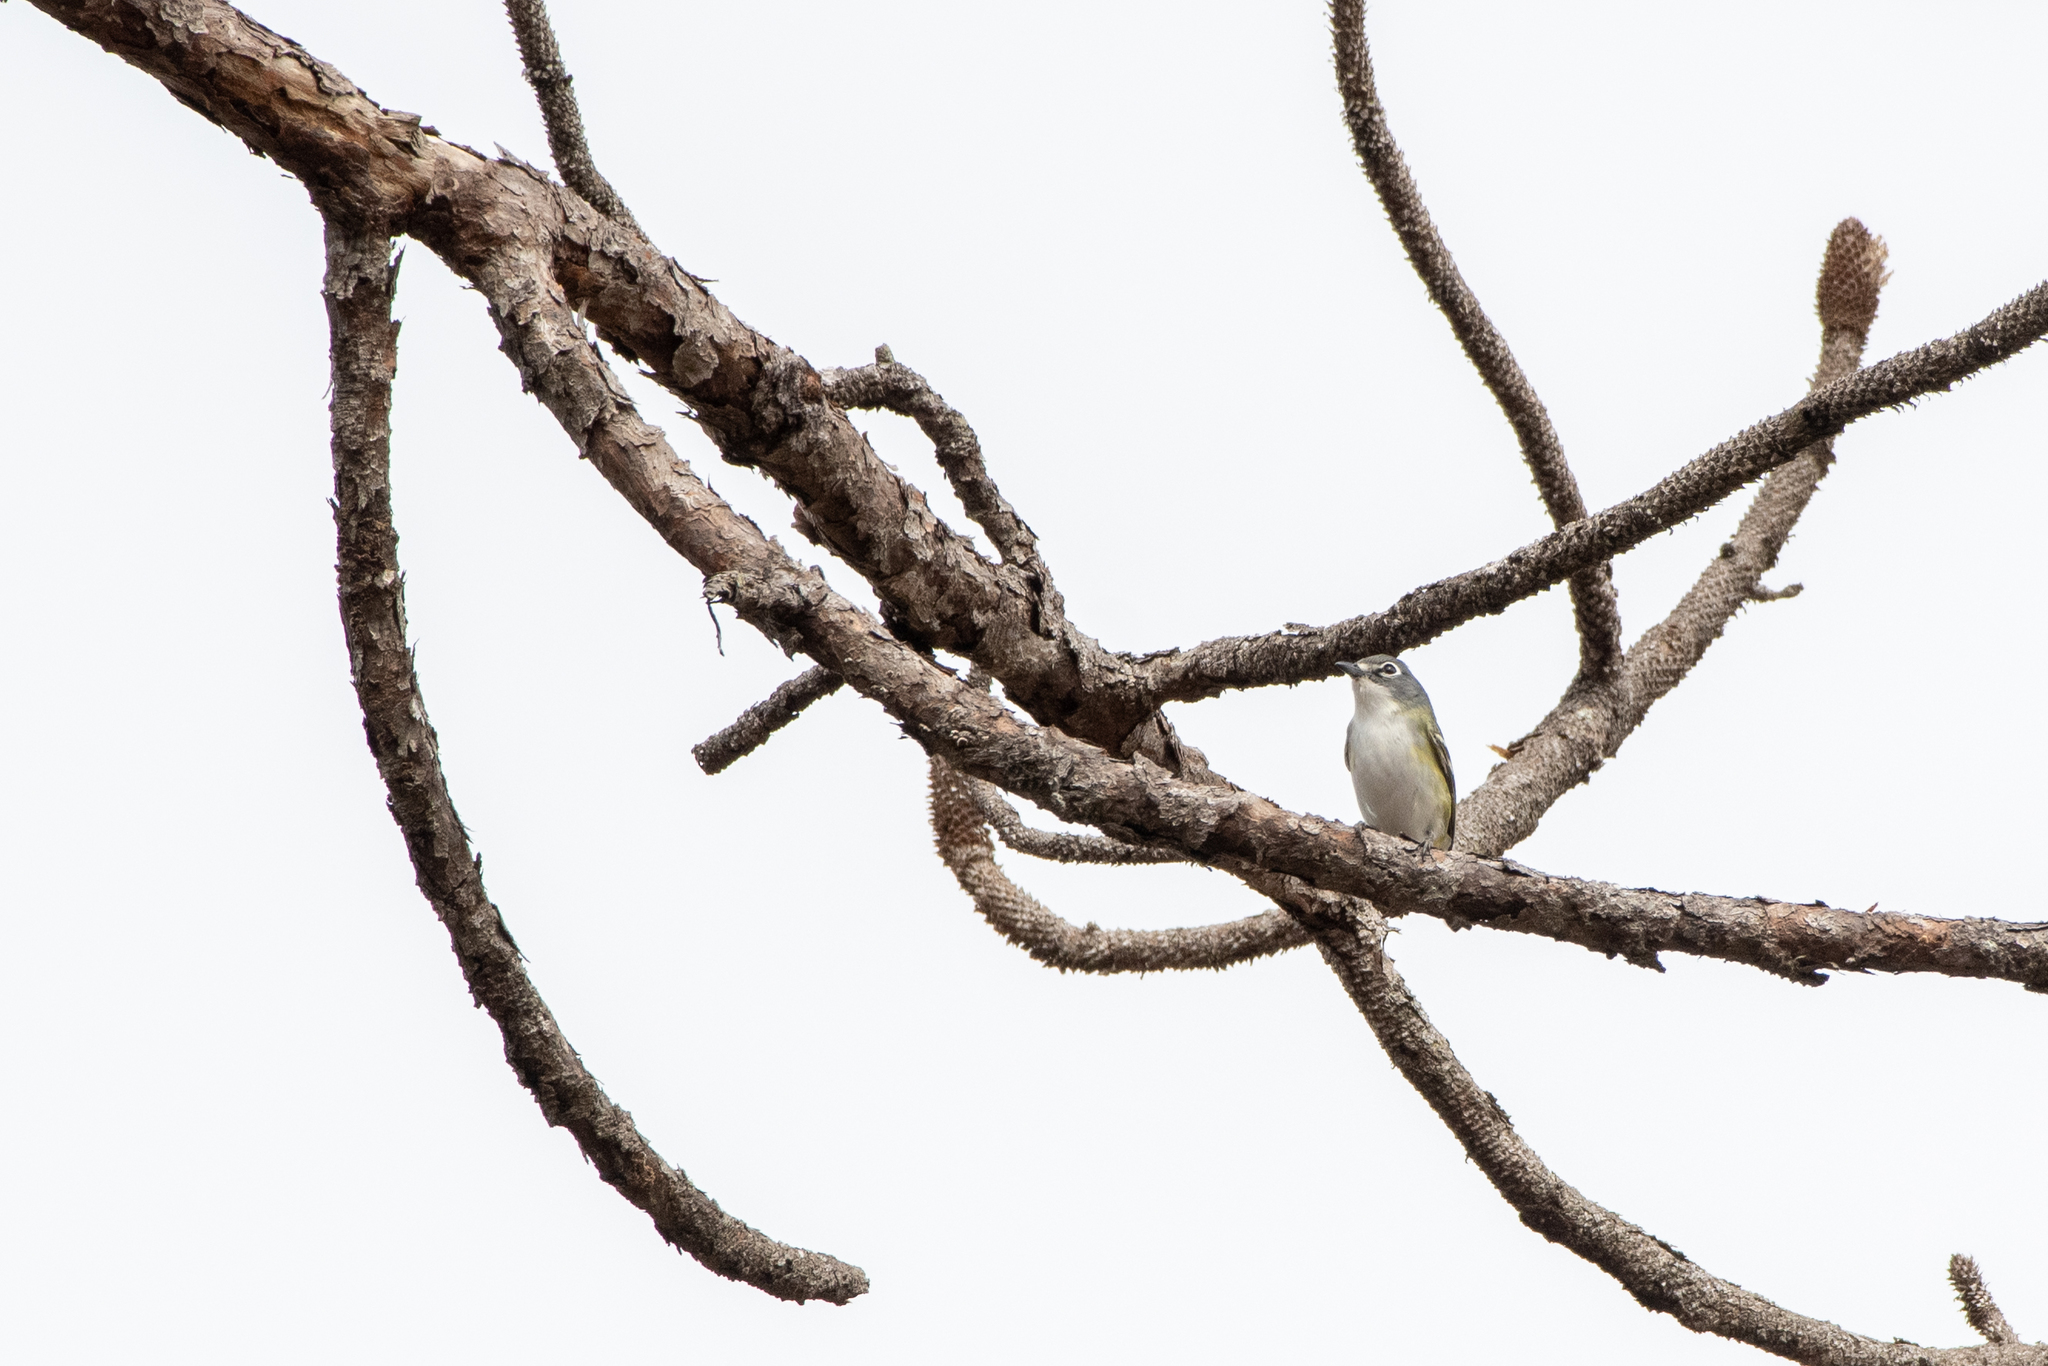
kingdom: Animalia
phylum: Chordata
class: Aves
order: Passeriformes
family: Vireonidae
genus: Vireo
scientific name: Vireo solitarius
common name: Blue-headed vireo
